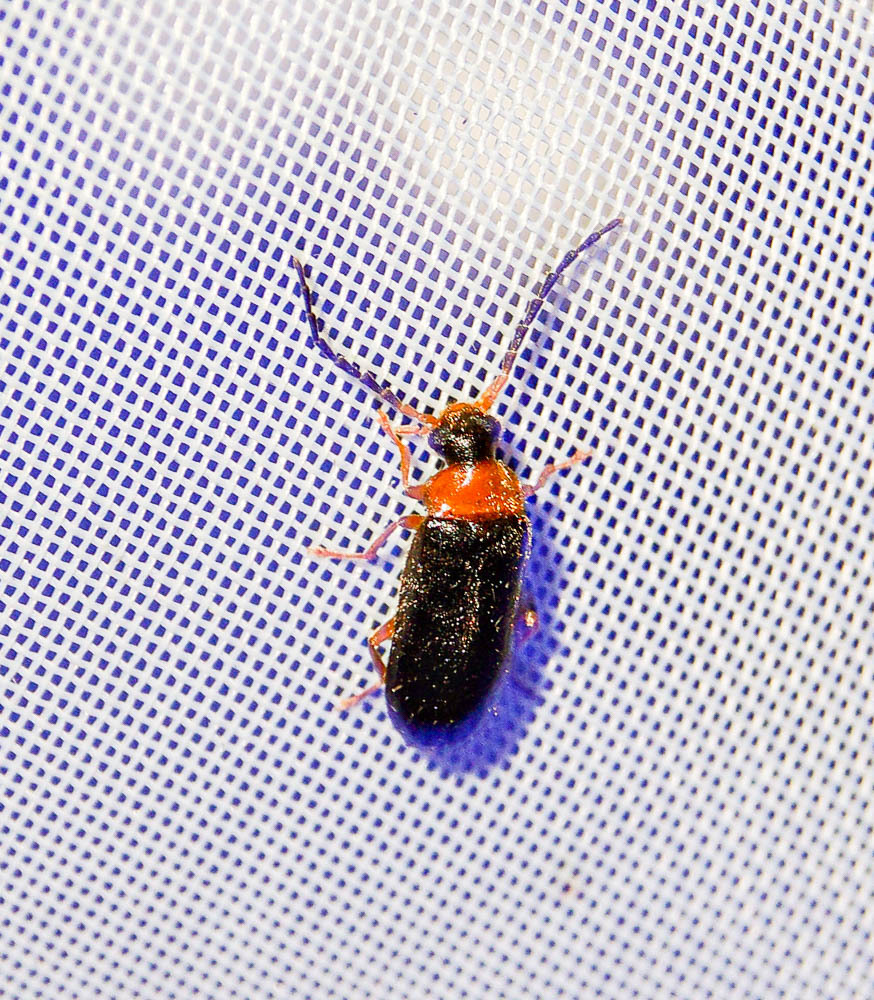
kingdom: Animalia
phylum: Arthropoda
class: Insecta
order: Coleoptera
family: Melandryidae
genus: Conopalpus
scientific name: Conopalpus testaceus
